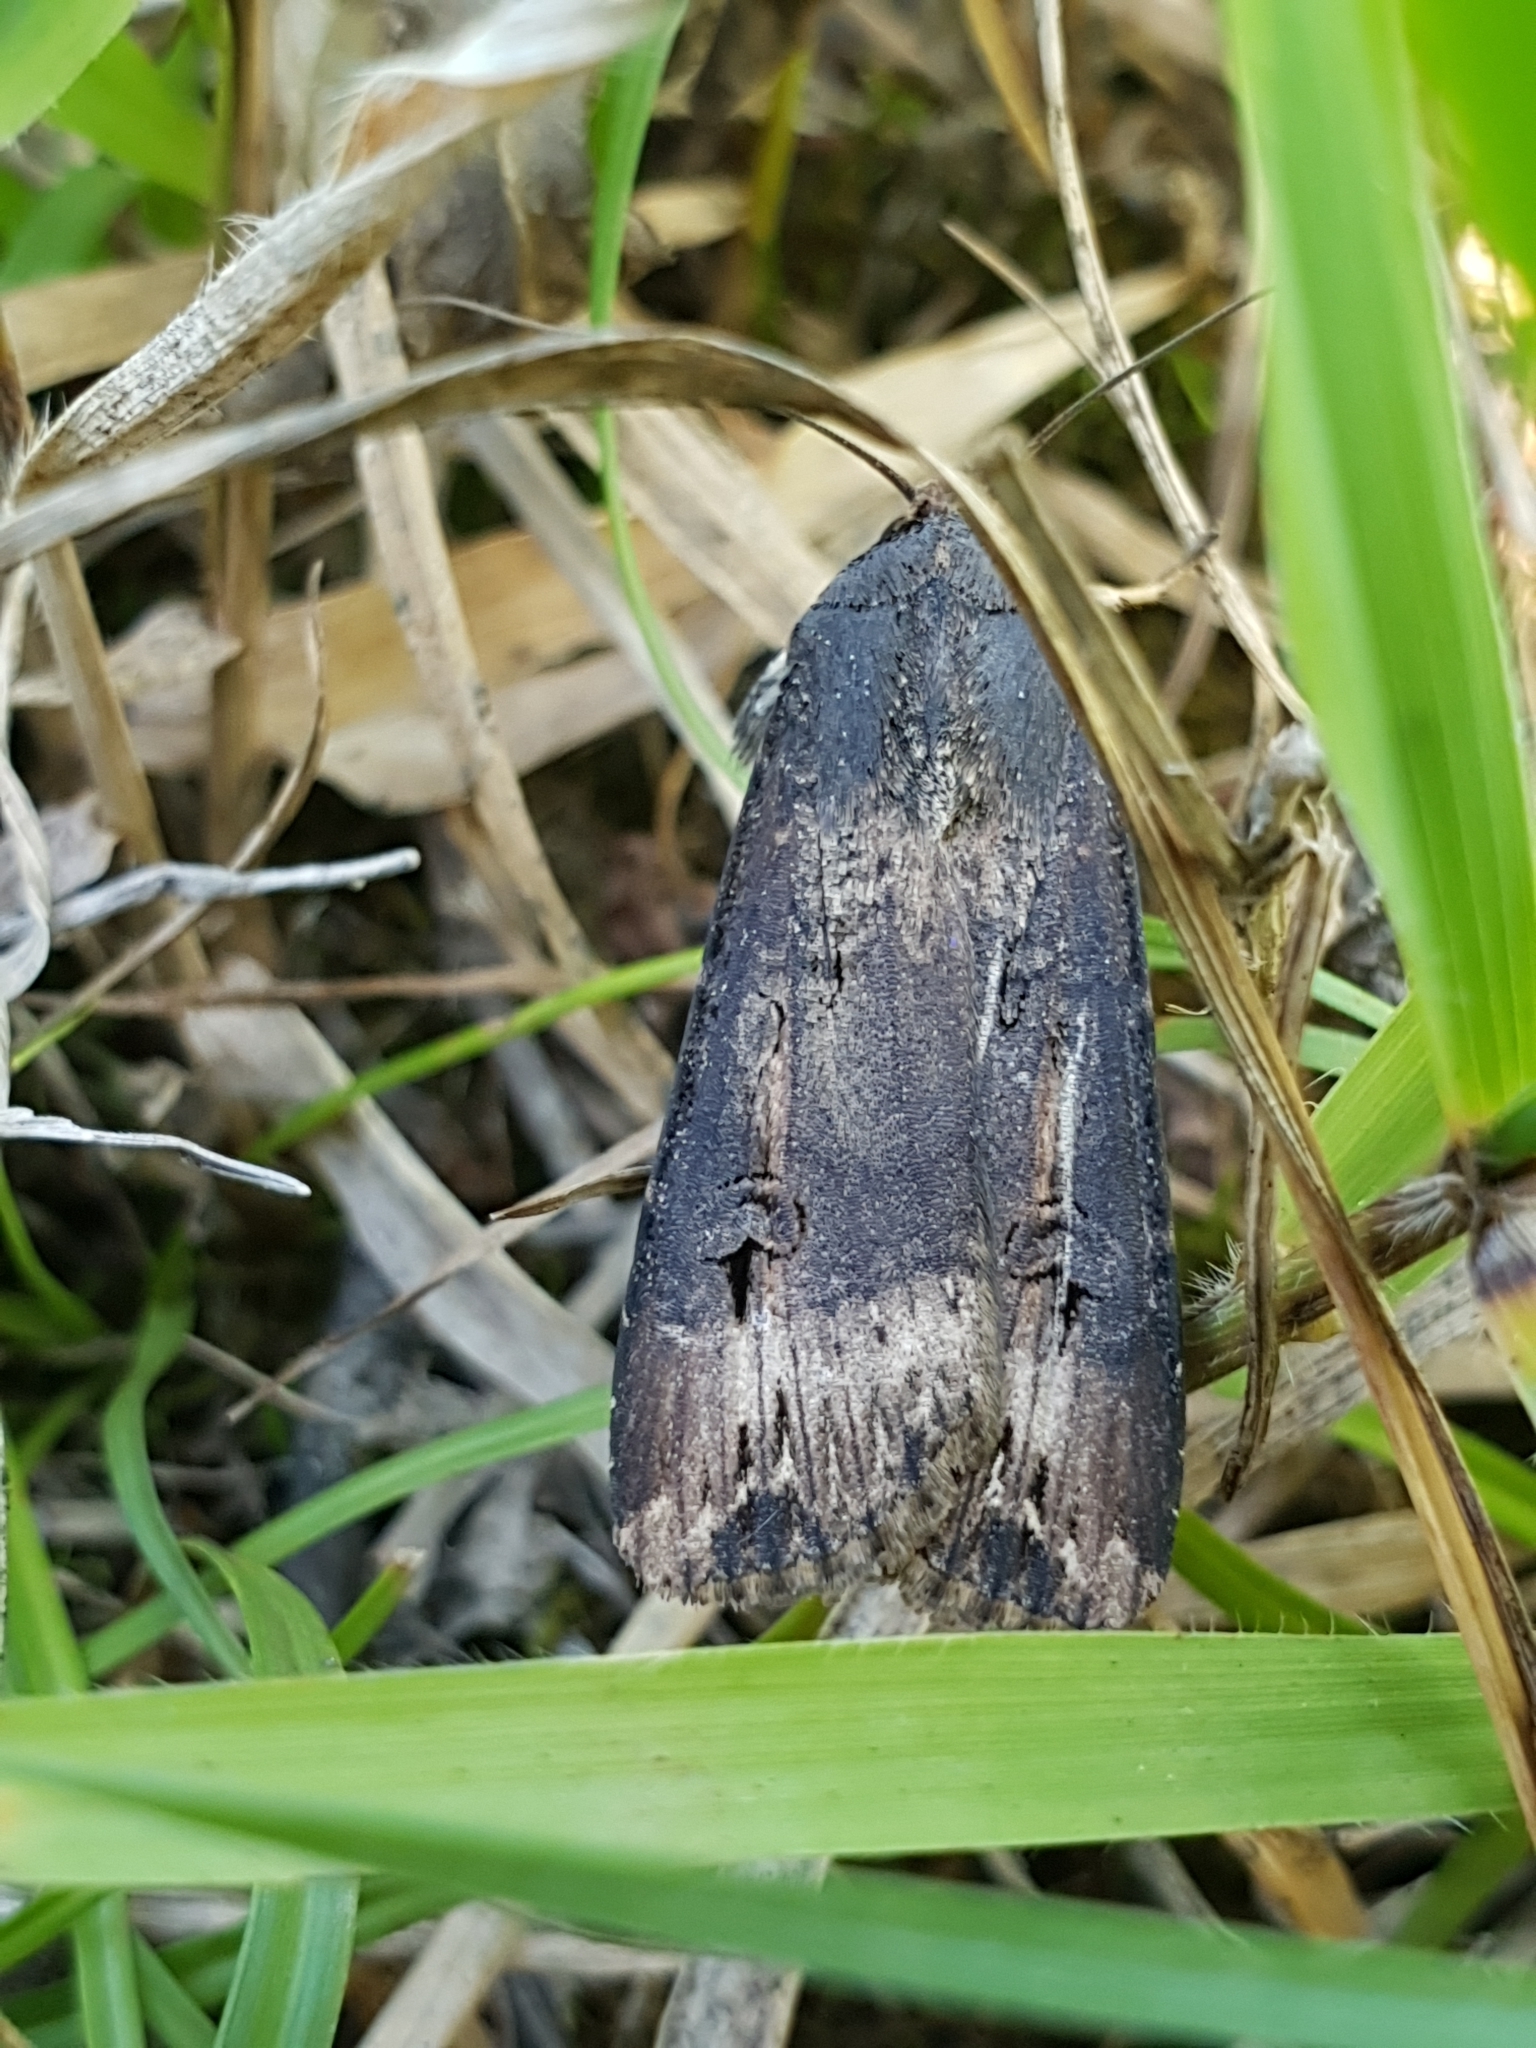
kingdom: Animalia
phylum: Arthropoda
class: Insecta
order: Lepidoptera
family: Noctuidae
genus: Agrotis
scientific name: Agrotis ipsilon
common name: Dark sword-grass
